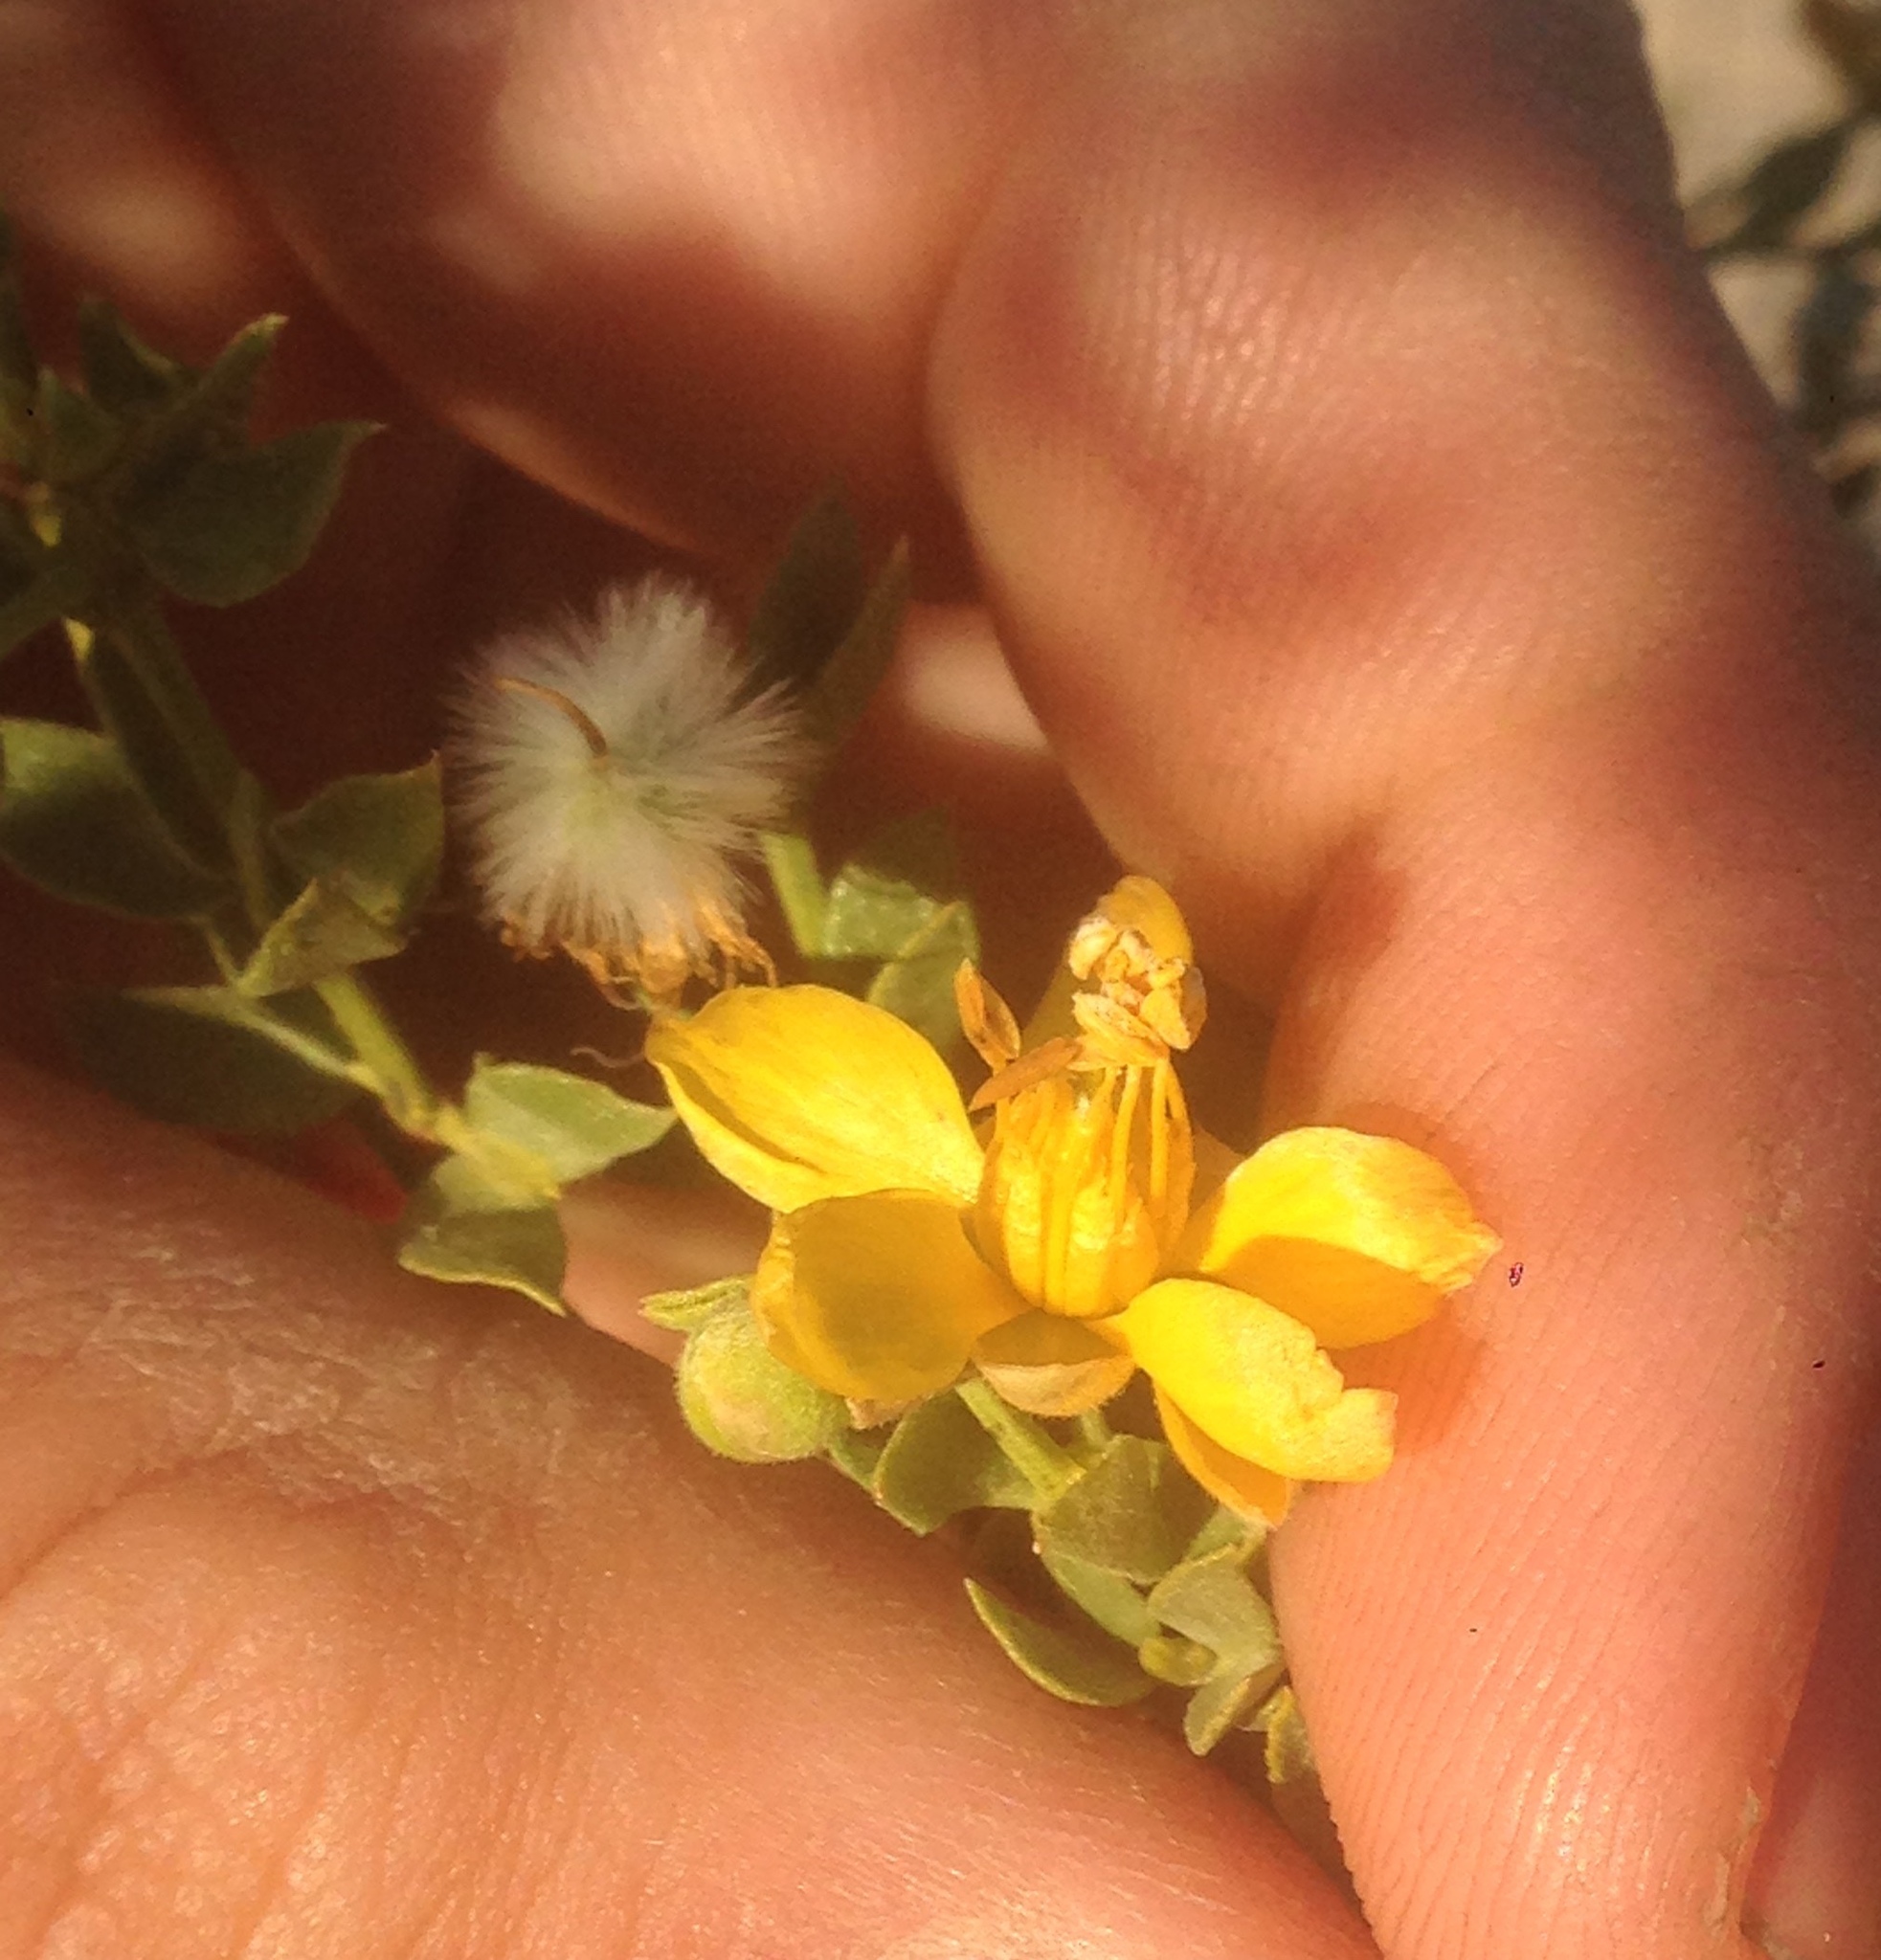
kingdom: Plantae
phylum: Tracheophyta
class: Magnoliopsida
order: Zygophyllales
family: Zygophyllaceae
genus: Larrea
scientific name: Larrea tridentata
